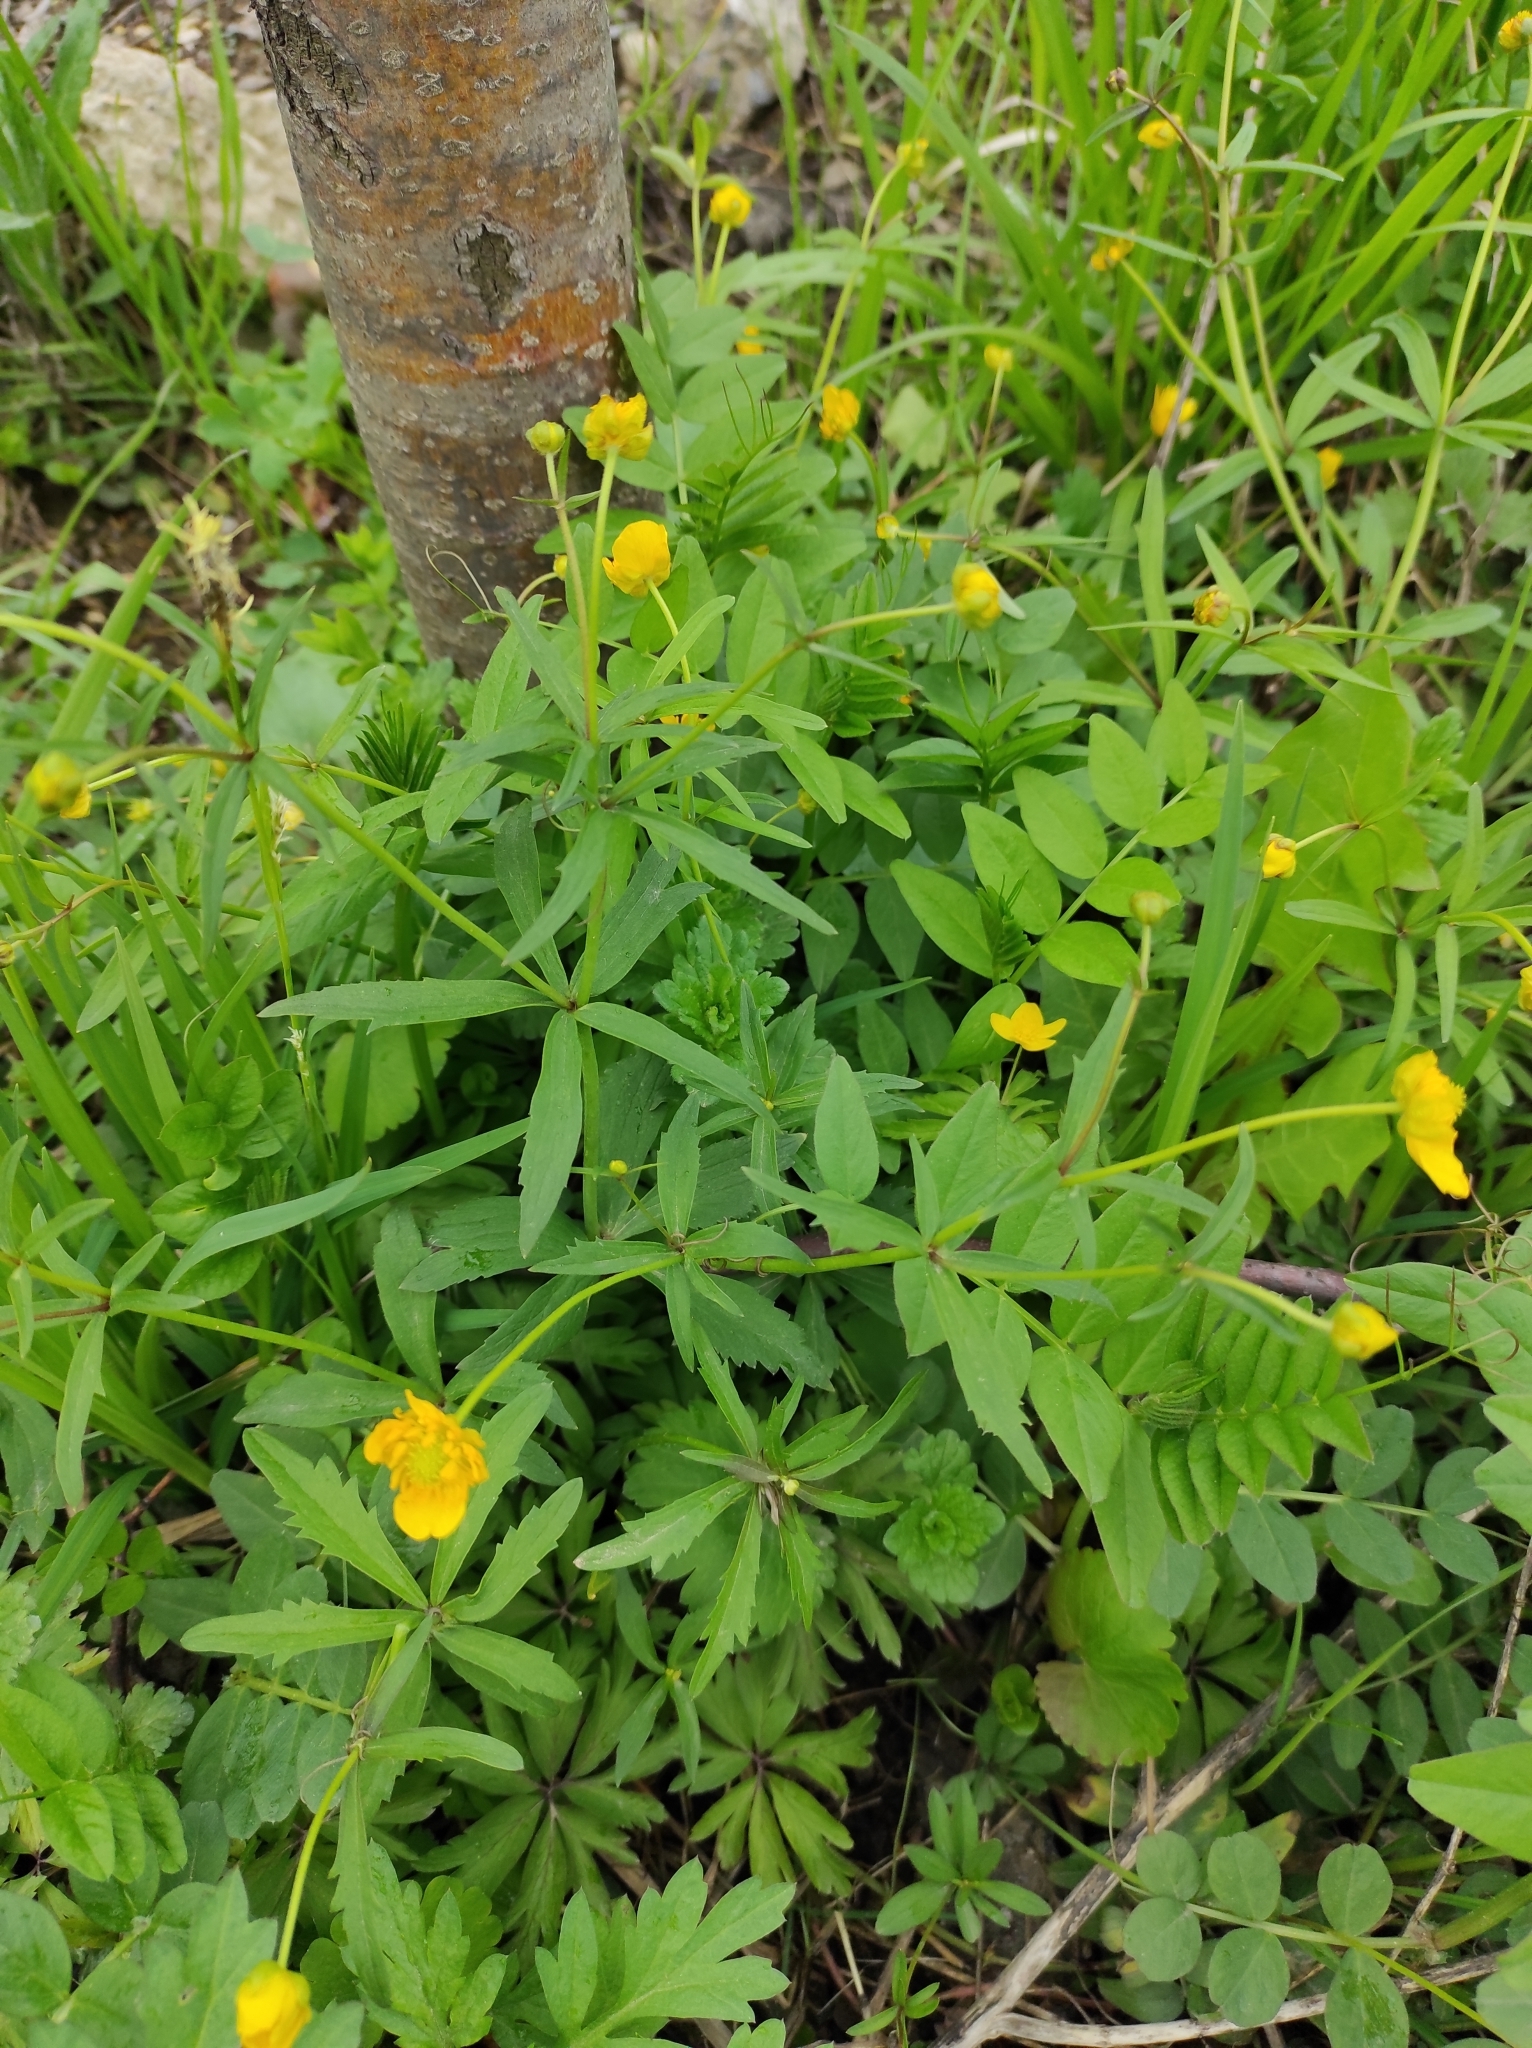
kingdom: Plantae
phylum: Tracheophyta
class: Magnoliopsida
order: Ranunculales
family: Ranunculaceae
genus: Ranunculus
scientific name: Ranunculus cassubicus
